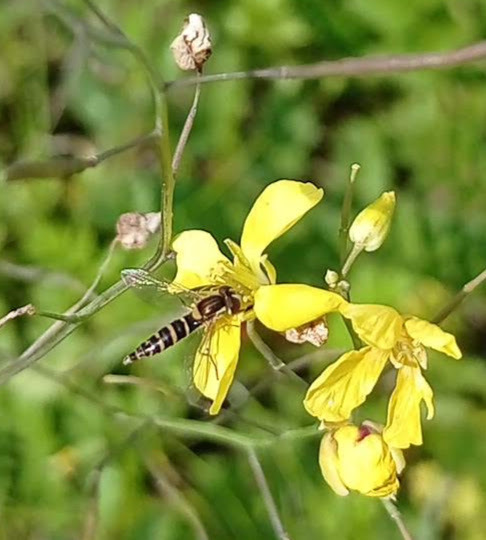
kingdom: Animalia
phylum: Arthropoda
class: Insecta
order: Diptera
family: Syrphidae
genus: Sphaerophoria
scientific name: Sphaerophoria
